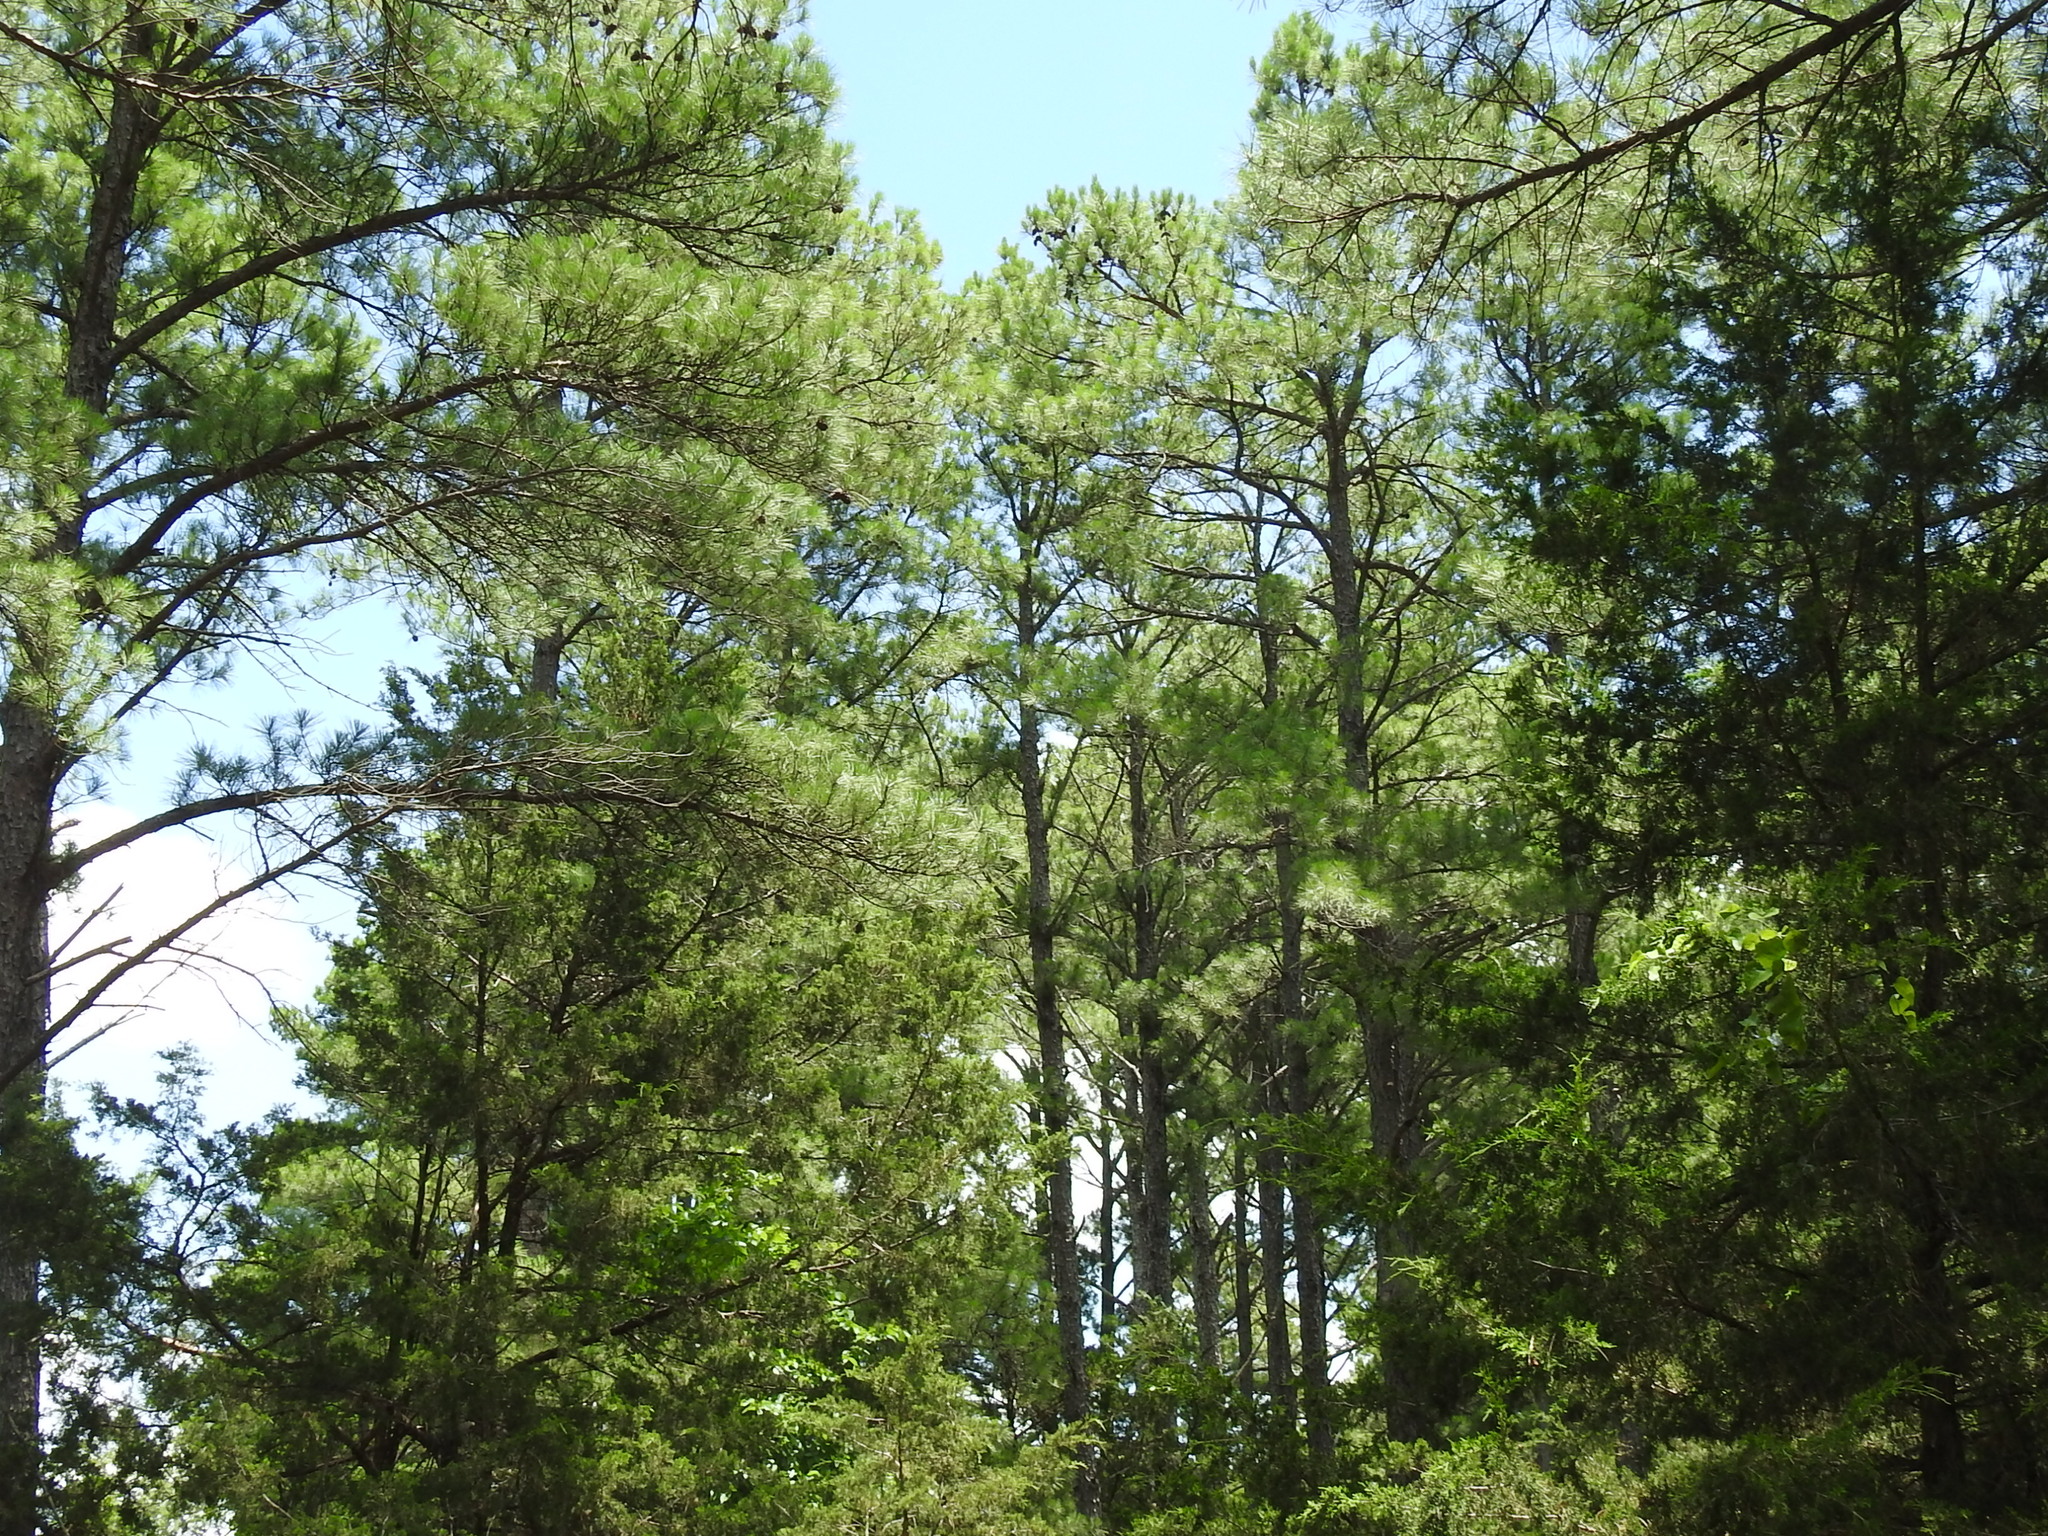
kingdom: Plantae
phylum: Tracheophyta
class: Pinopsida
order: Pinales
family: Pinaceae
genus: Pinus
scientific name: Pinus taeda
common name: Loblolly pine
